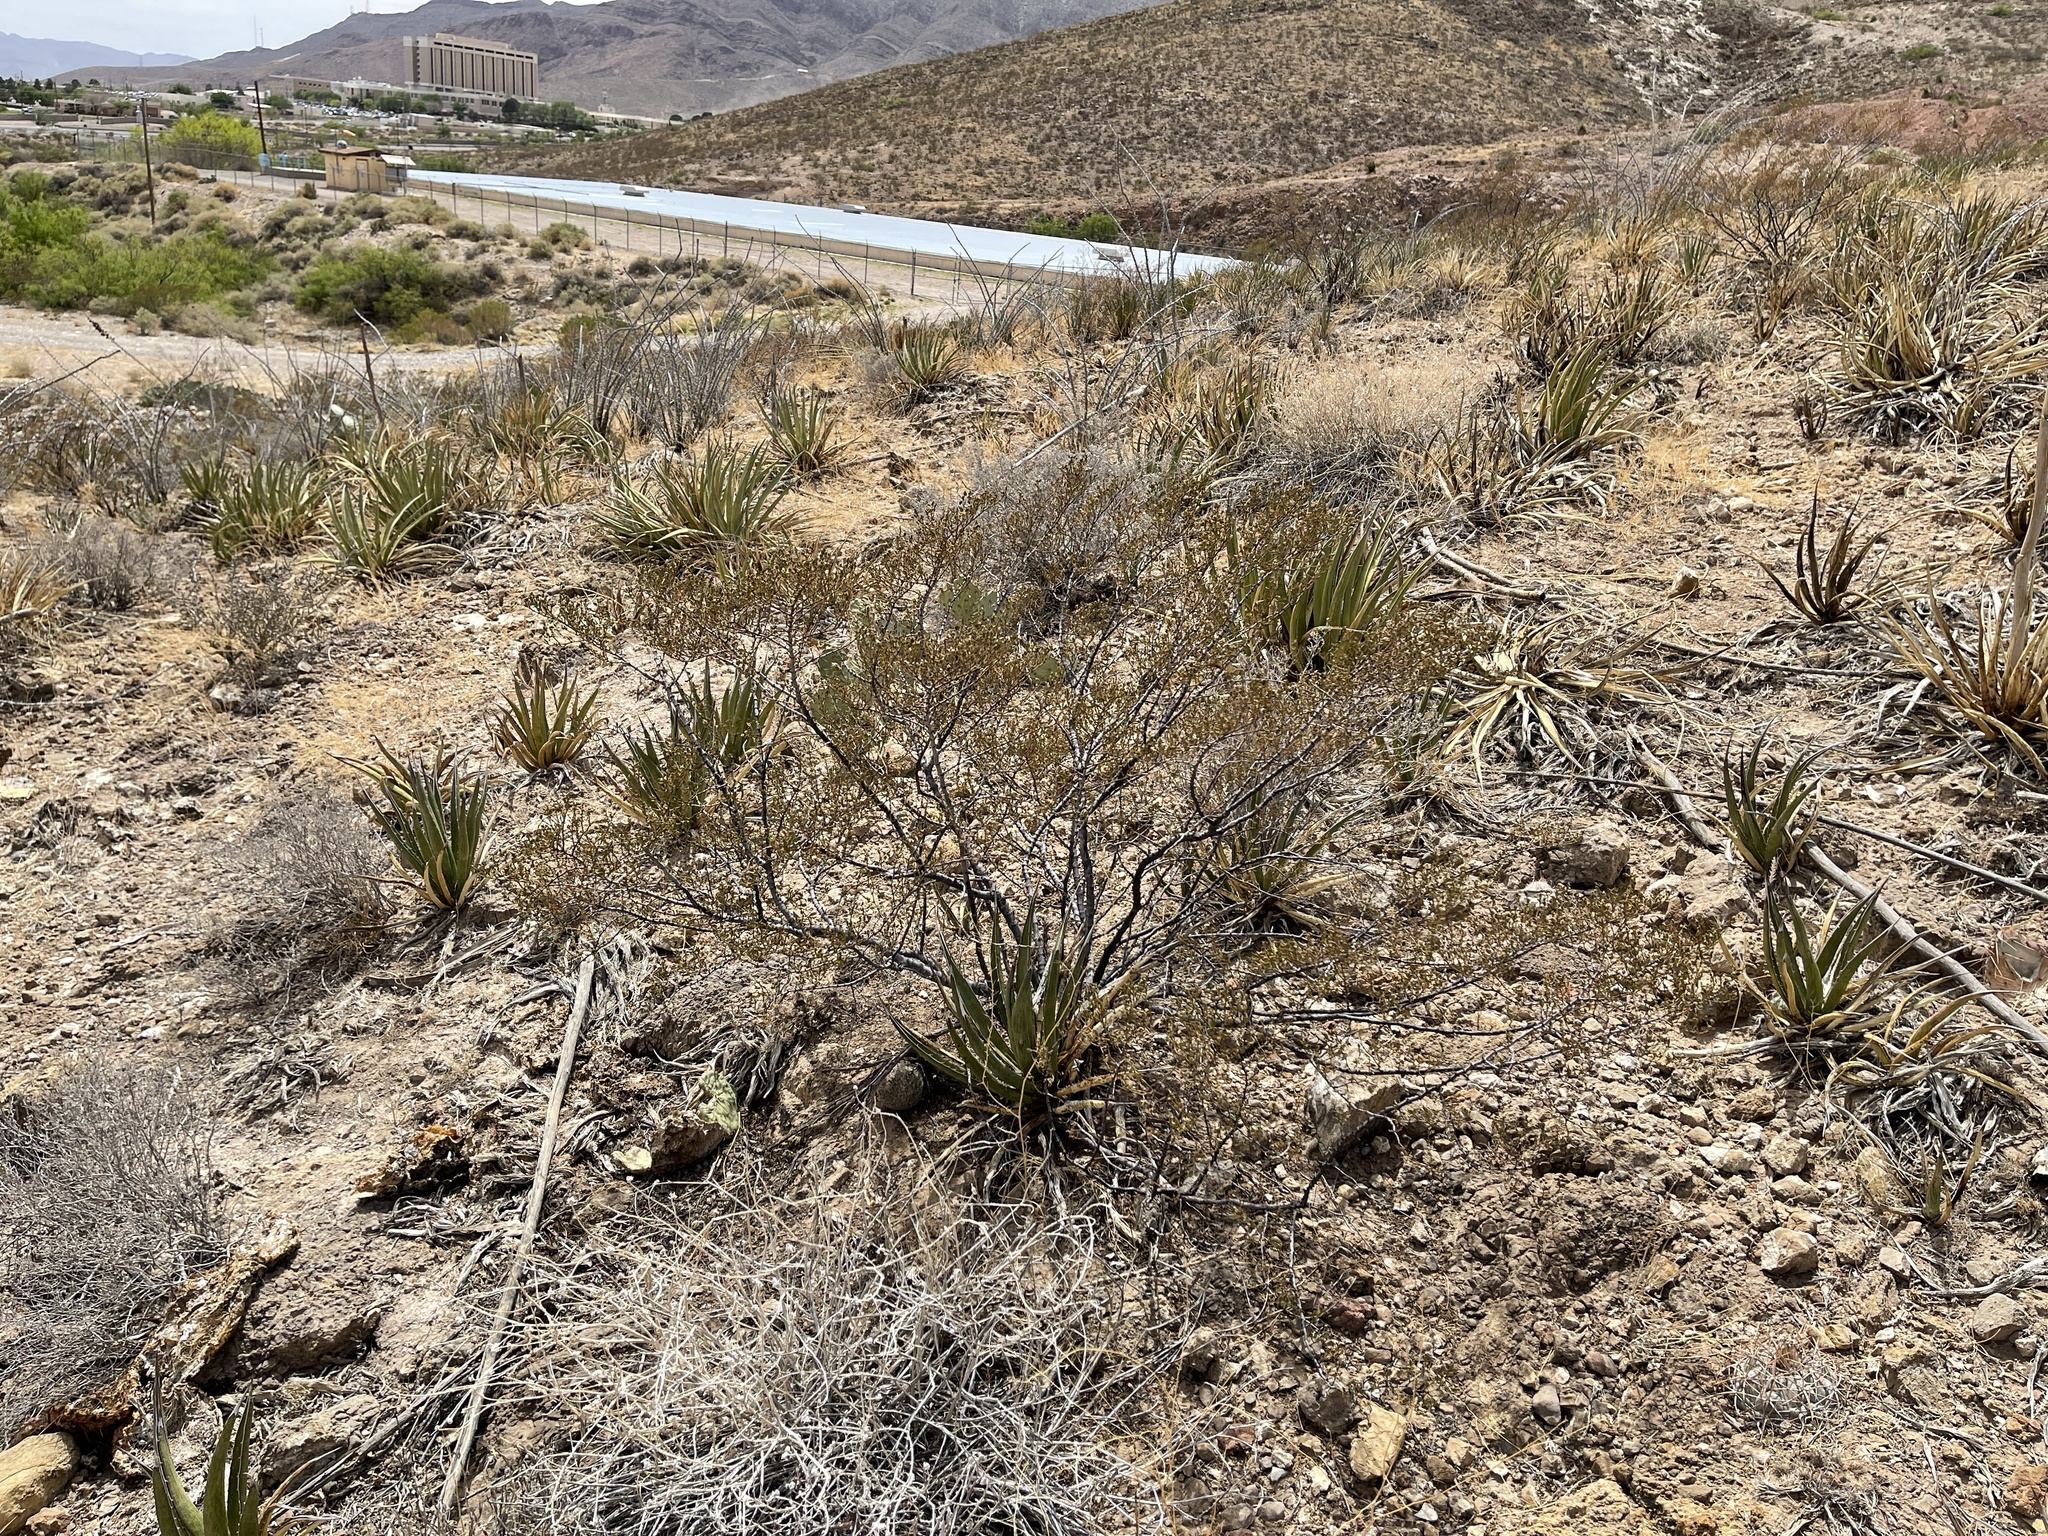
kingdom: Plantae
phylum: Tracheophyta
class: Magnoliopsida
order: Zygophyllales
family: Zygophyllaceae
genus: Larrea
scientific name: Larrea tridentata
